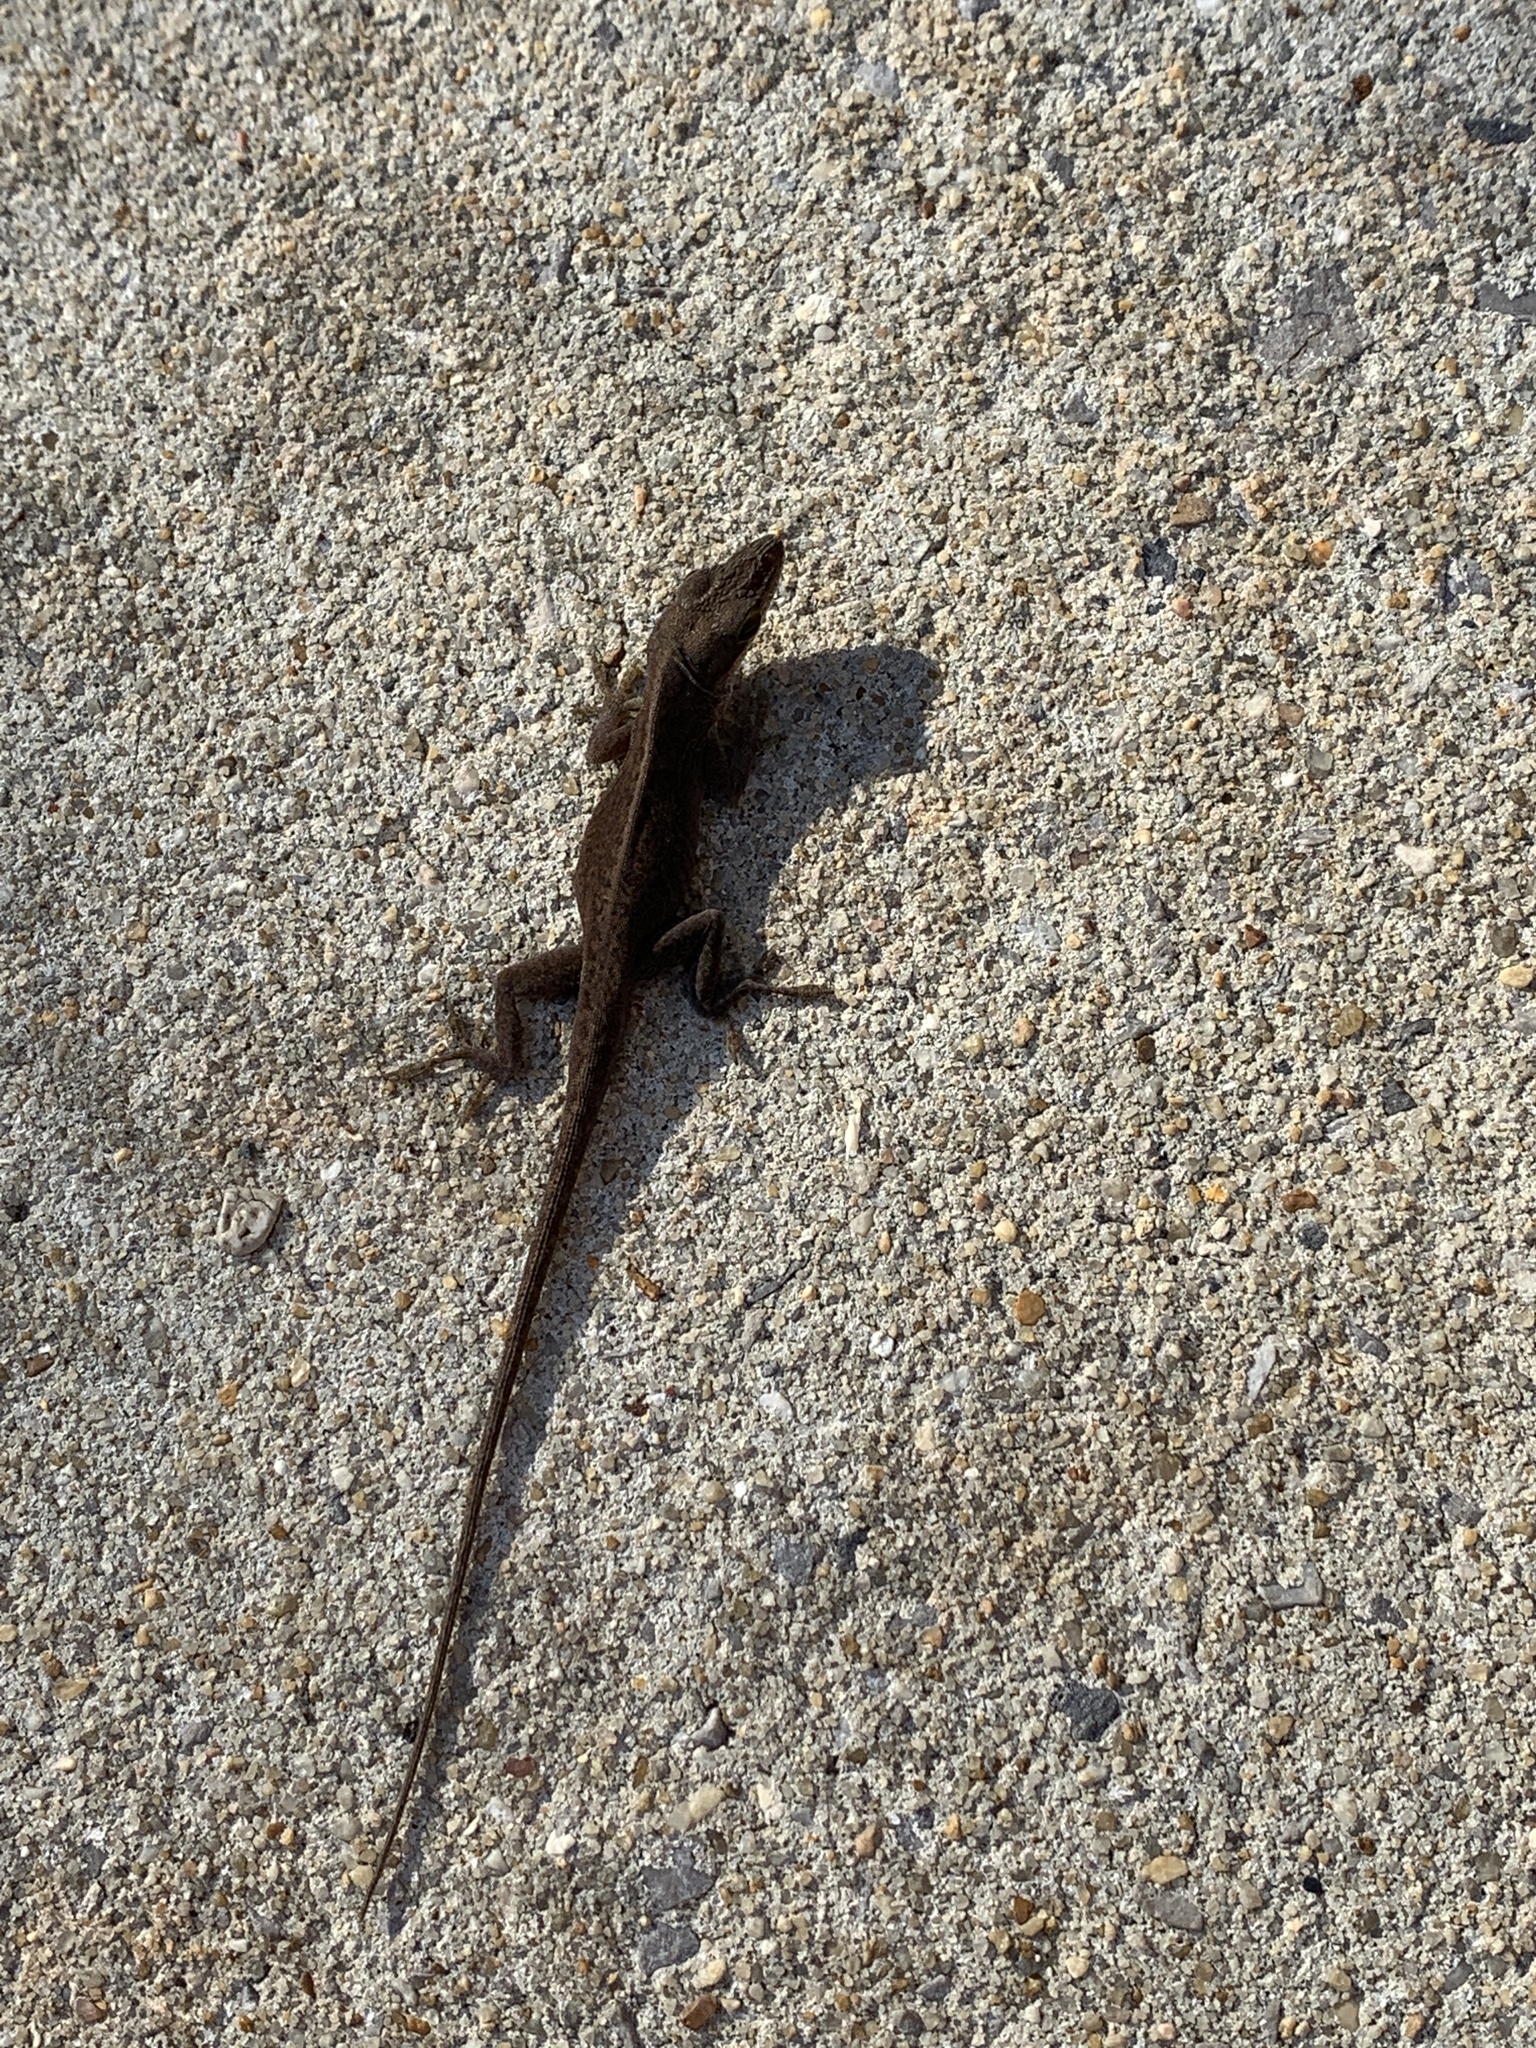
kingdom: Animalia
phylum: Chordata
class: Squamata
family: Dactyloidae
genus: Anolis
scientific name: Anolis carolinensis
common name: Green anole
